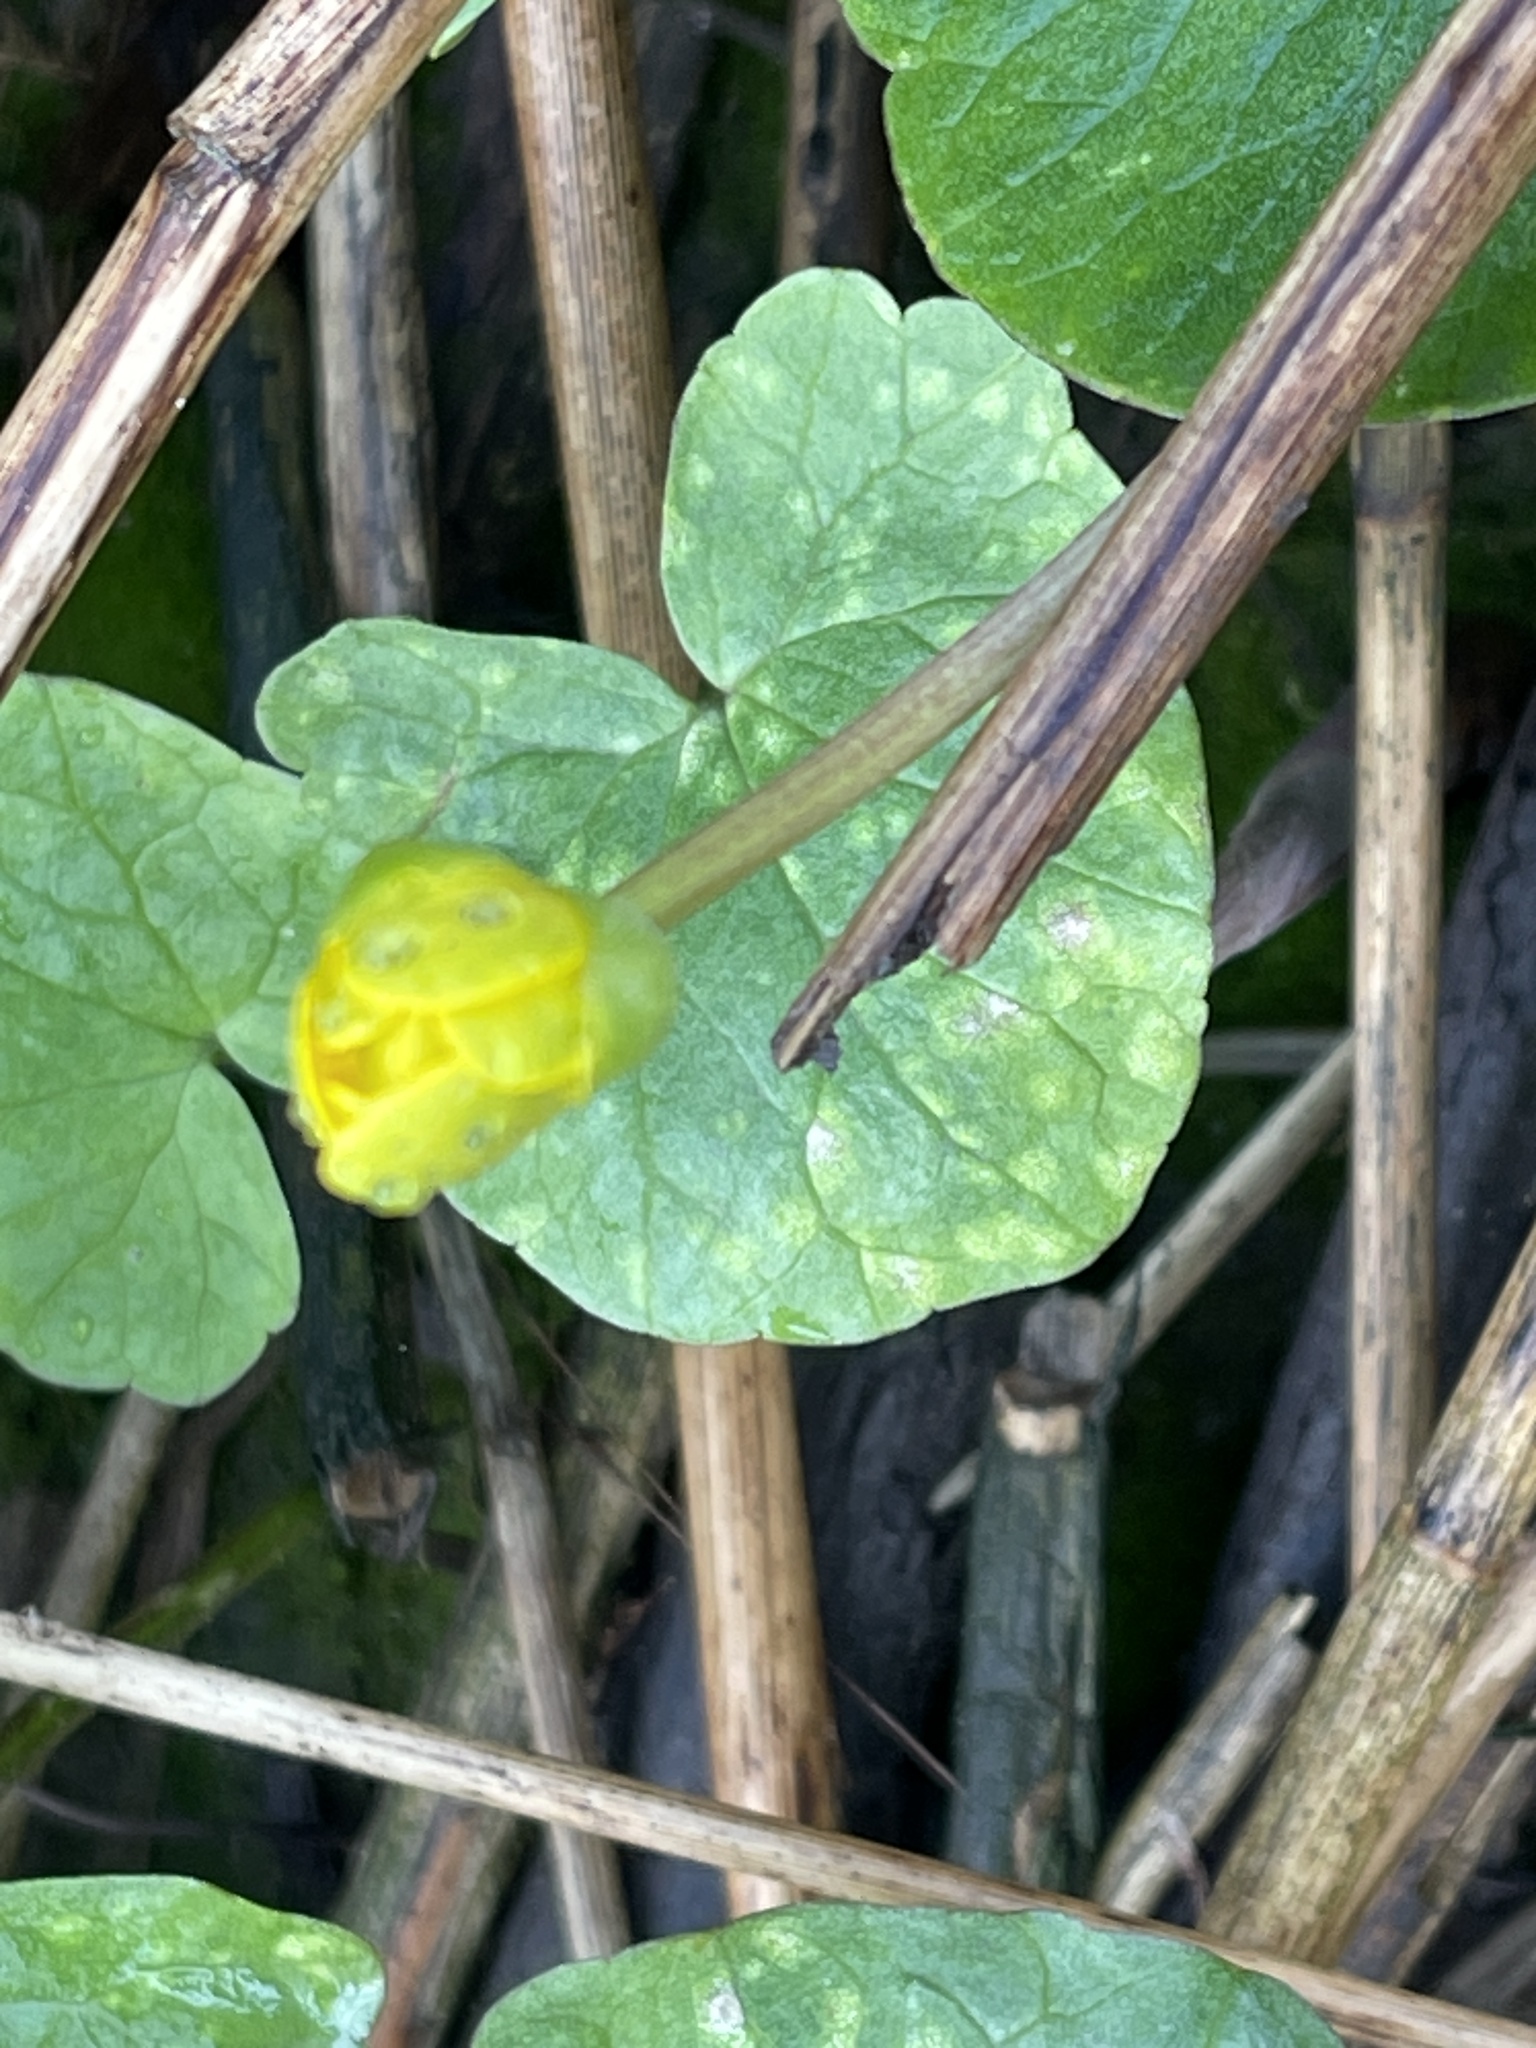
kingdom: Plantae
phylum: Tracheophyta
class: Magnoliopsida
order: Ranunculales
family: Ranunculaceae
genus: Ficaria
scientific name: Ficaria verna
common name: Lesser celandine
